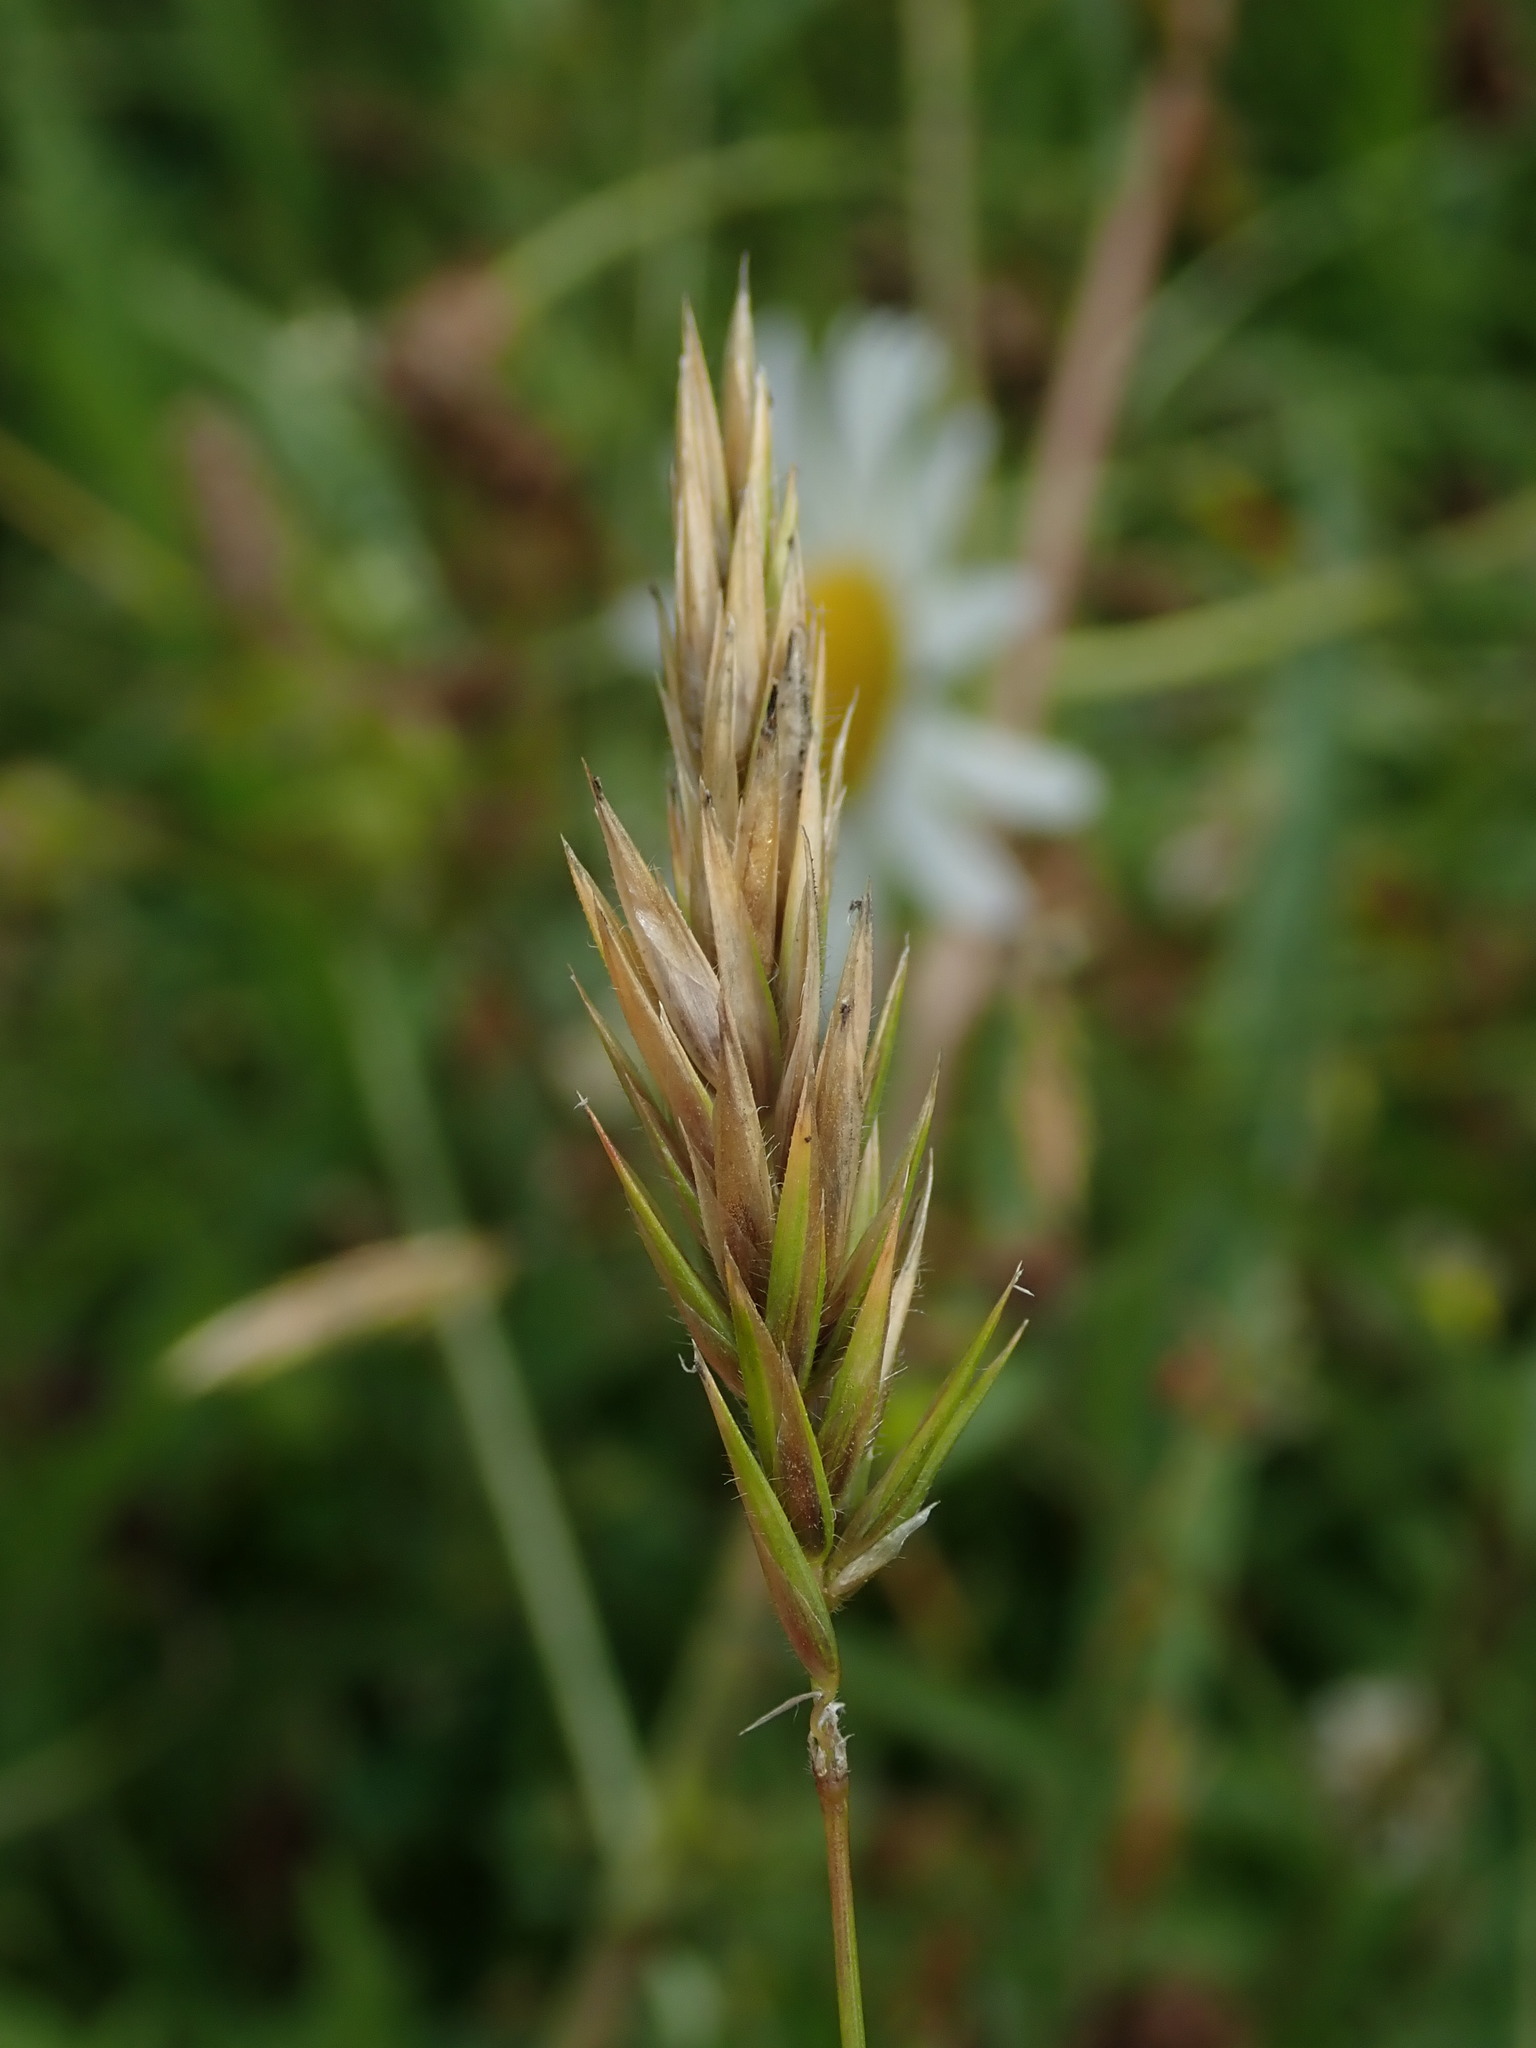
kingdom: Plantae
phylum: Tracheophyta
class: Liliopsida
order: Poales
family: Poaceae
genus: Anthoxanthum
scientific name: Anthoxanthum odoratum
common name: Sweet vernalgrass
